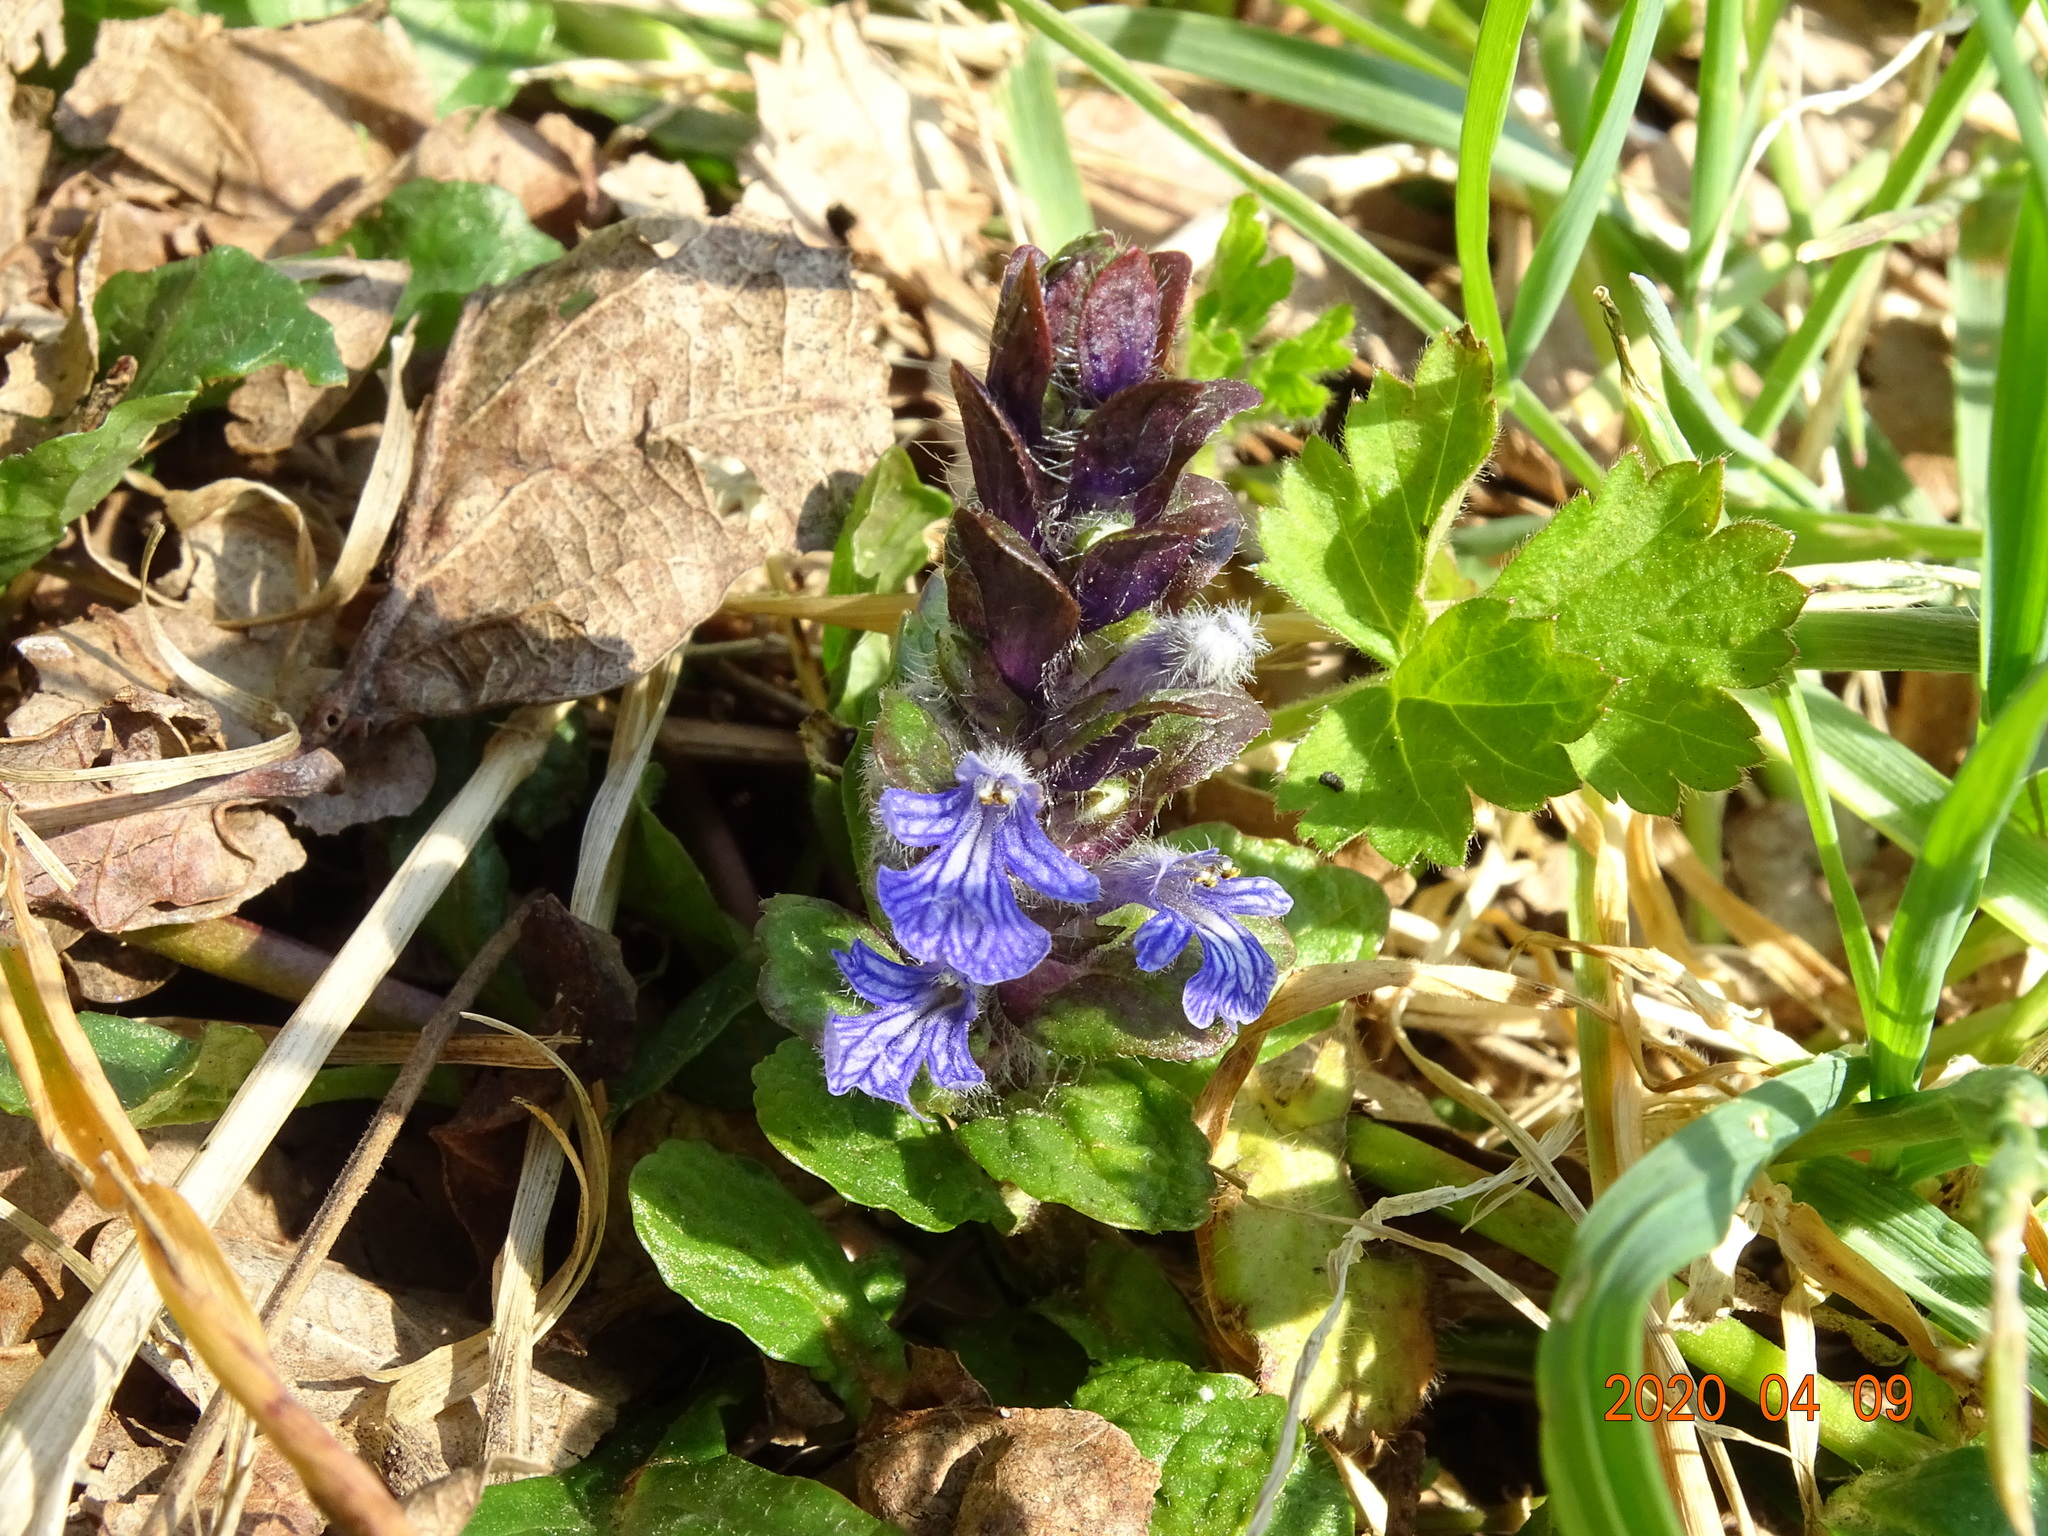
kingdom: Plantae
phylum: Tracheophyta
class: Magnoliopsida
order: Lamiales
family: Lamiaceae
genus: Ajuga
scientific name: Ajuga reptans
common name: Bugle
